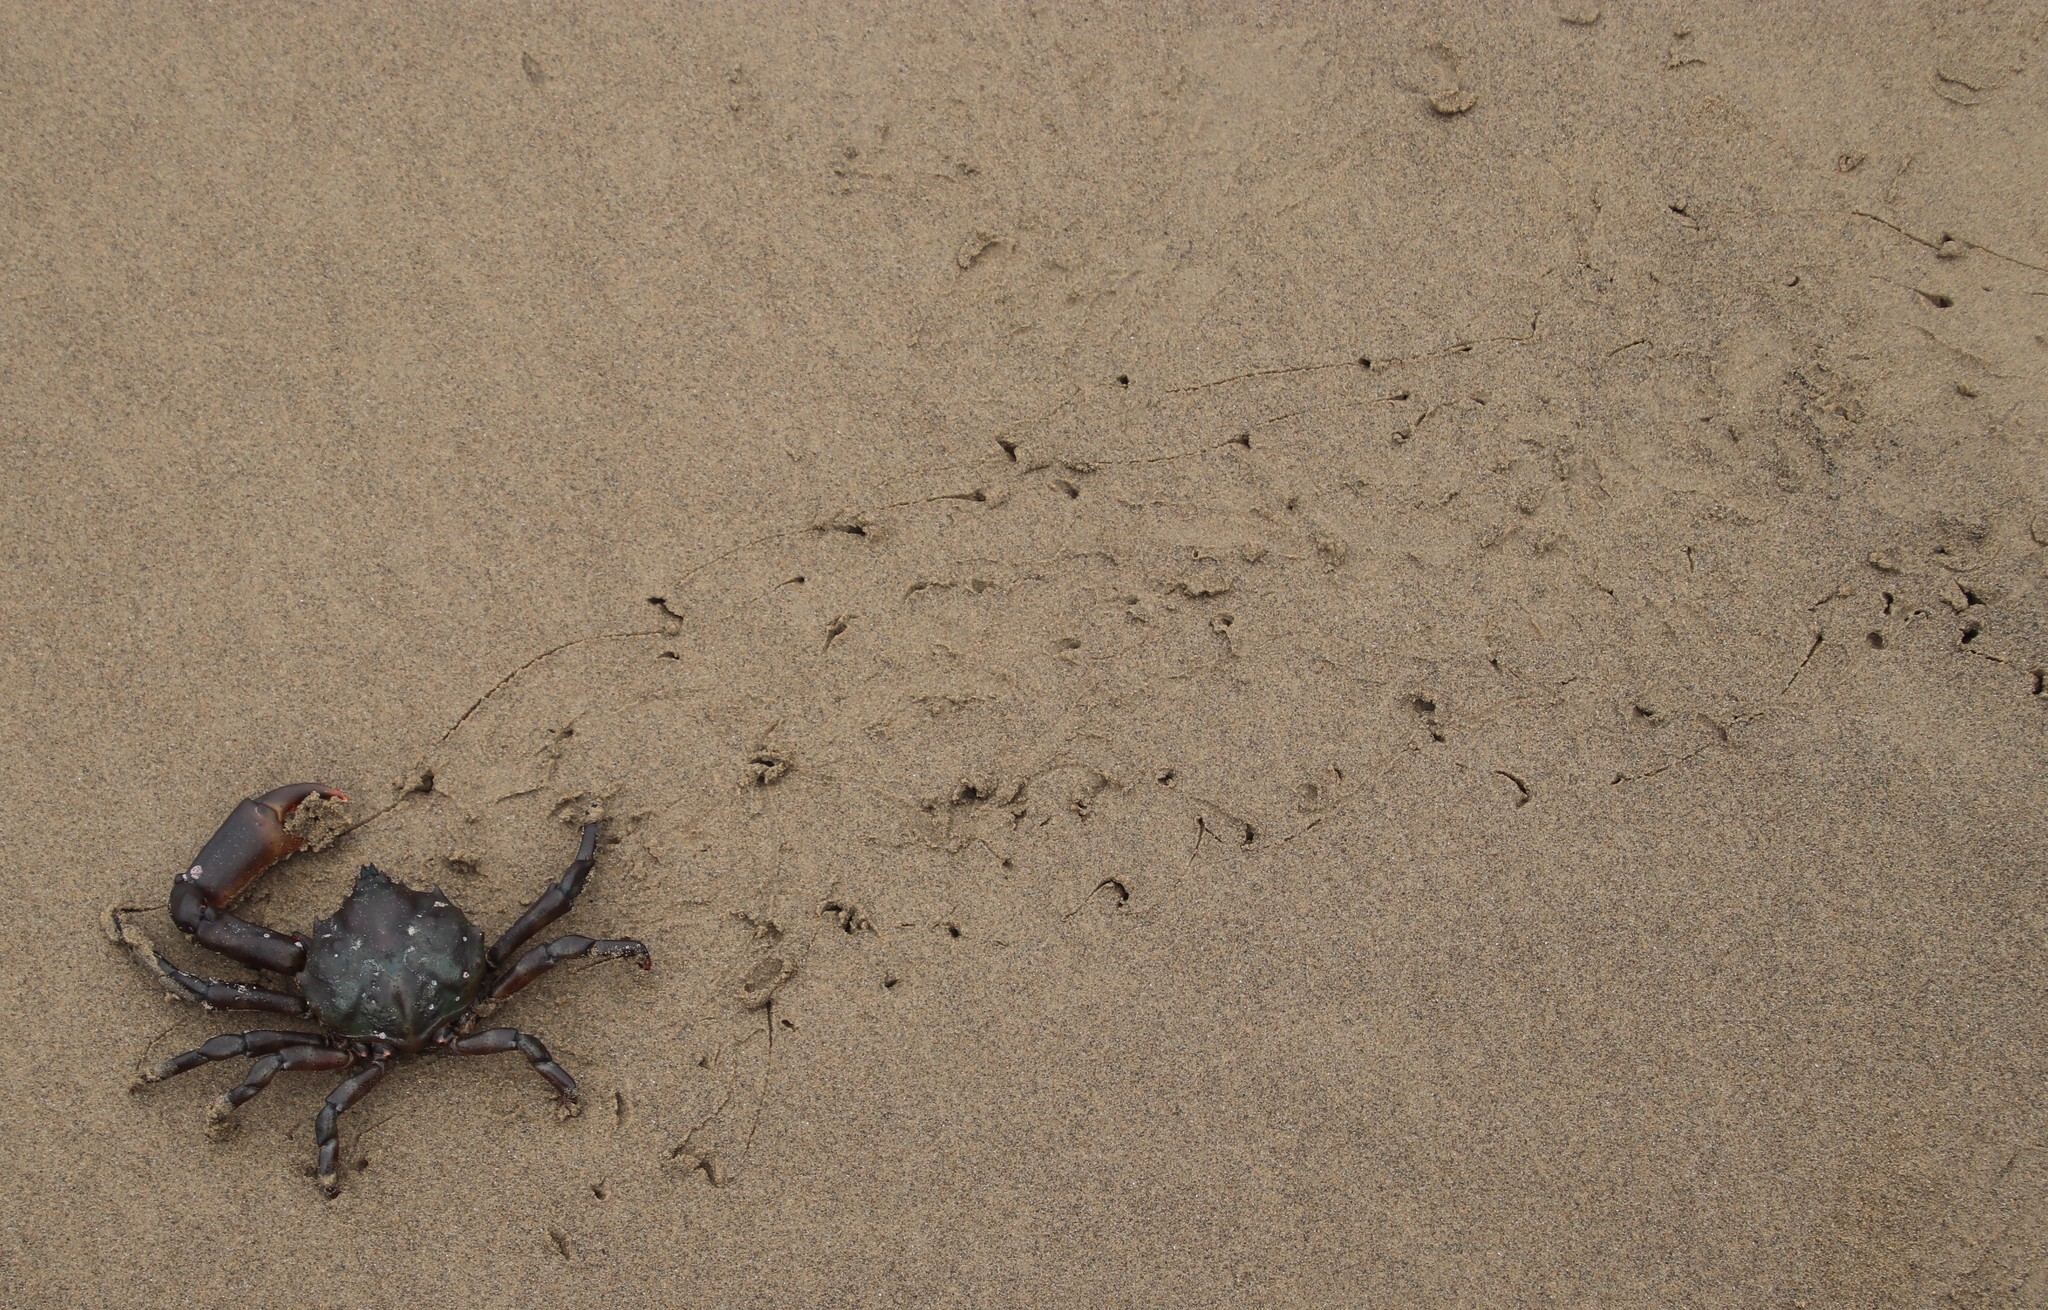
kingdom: Animalia
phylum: Arthropoda
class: Malacostraca
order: Decapoda
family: Epialtidae
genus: Antilibinia
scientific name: Antilibinia smithii
